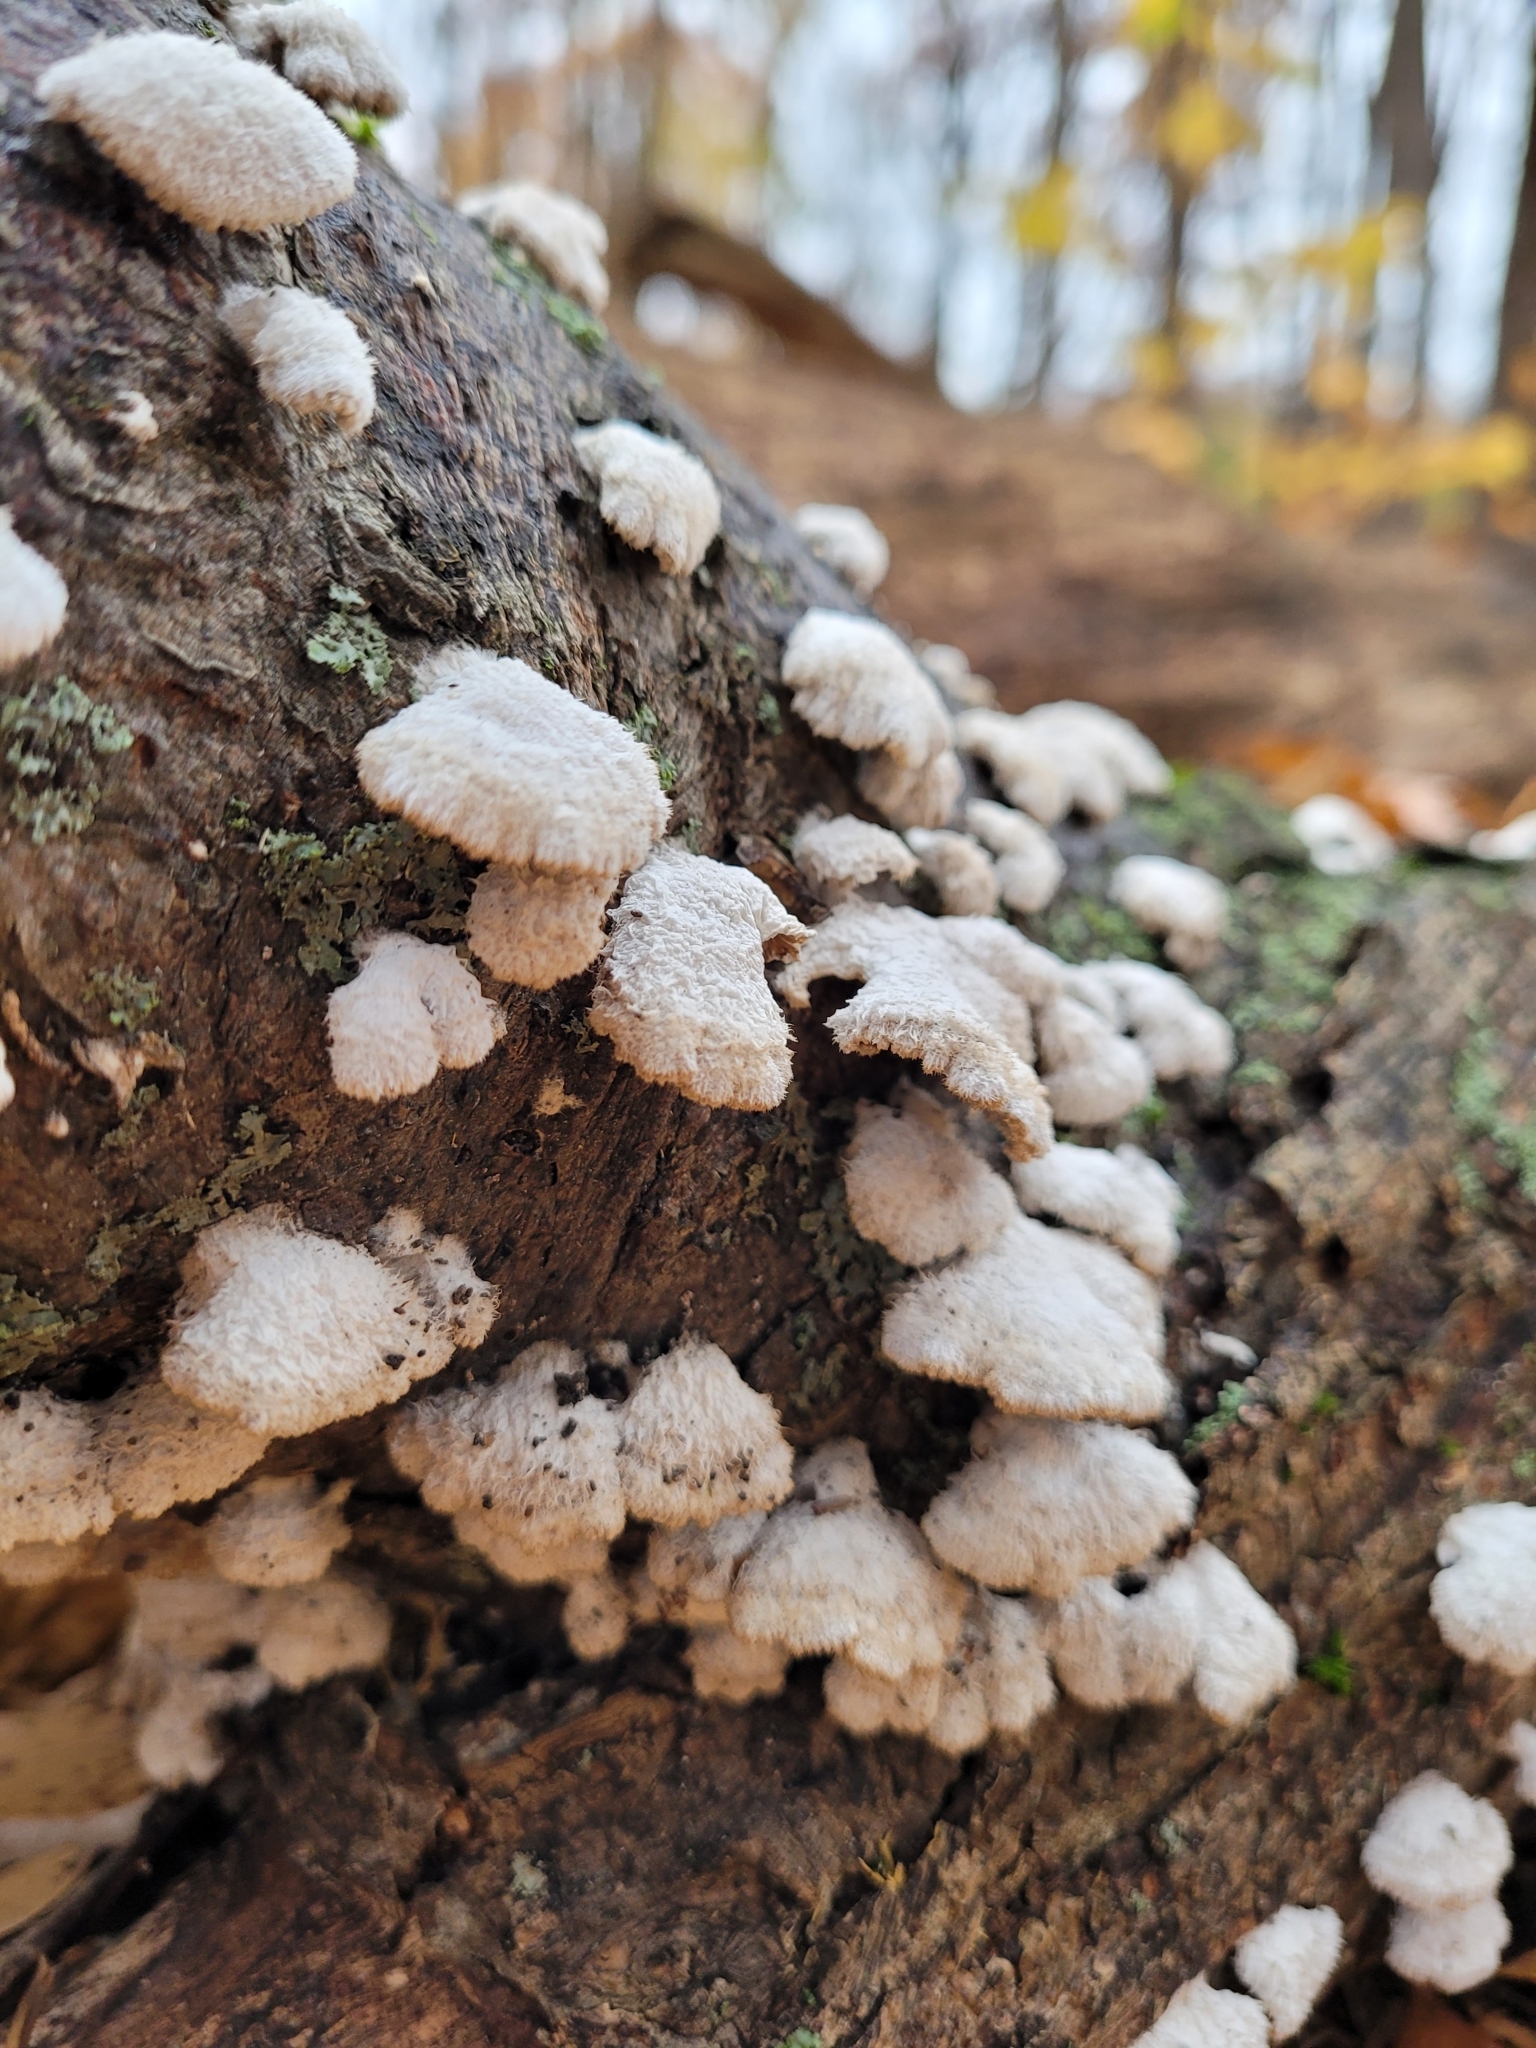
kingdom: Fungi
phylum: Basidiomycota
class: Agaricomycetes
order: Agaricales
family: Schizophyllaceae
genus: Schizophyllum
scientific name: Schizophyllum commune
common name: Common porecrust
